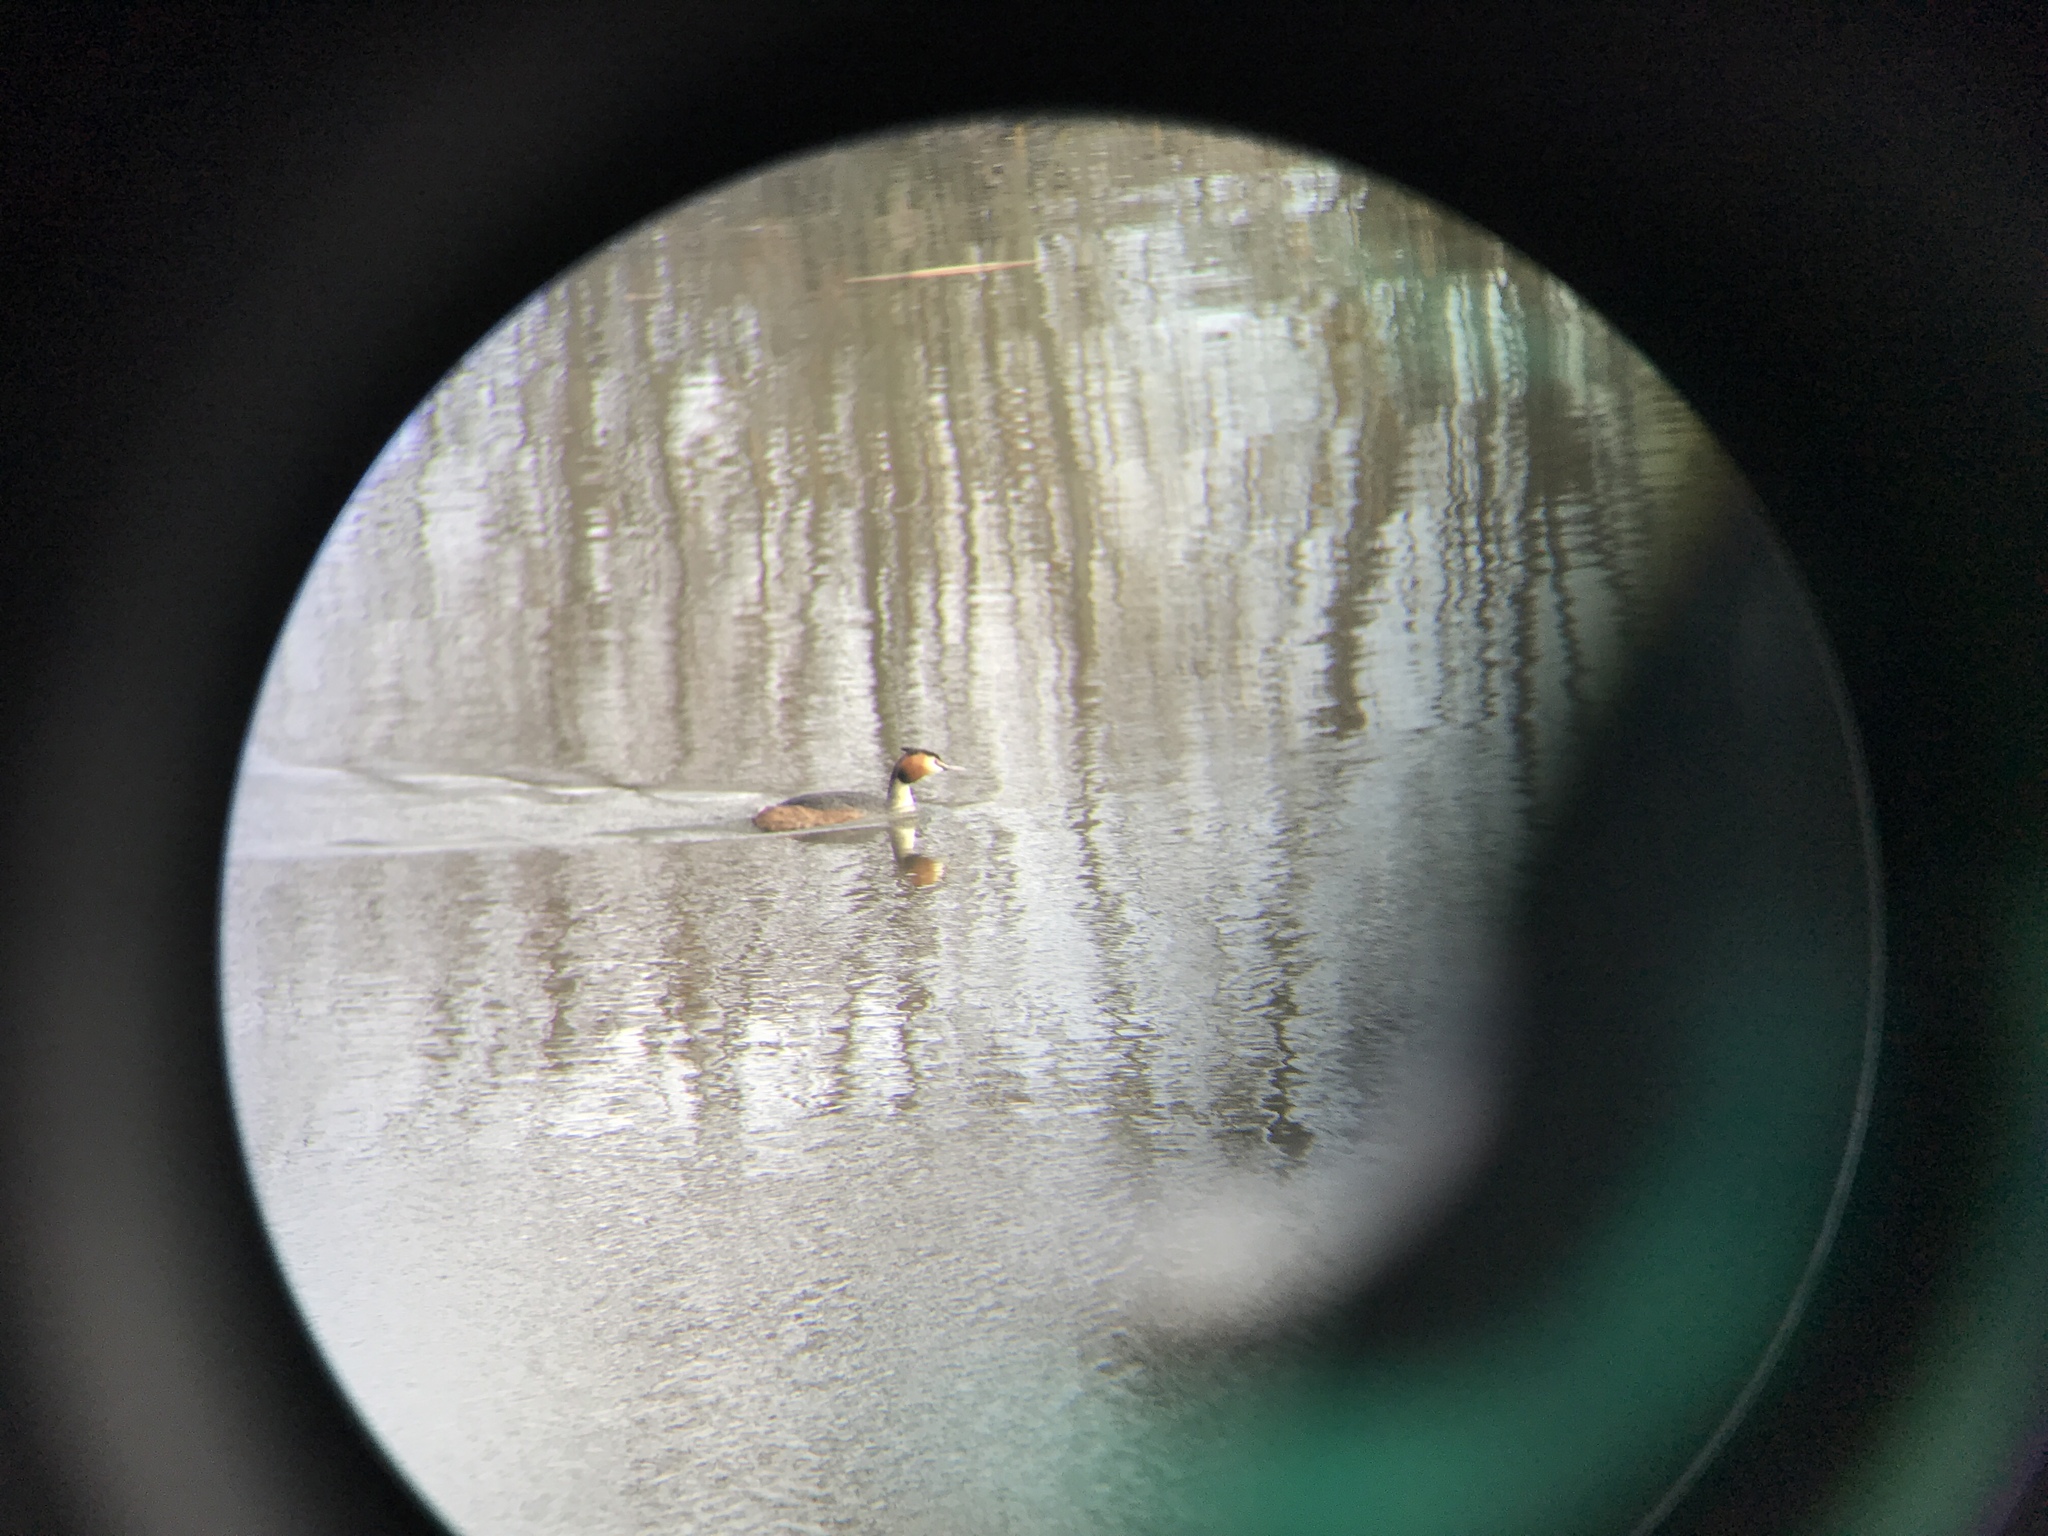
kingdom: Animalia
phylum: Chordata
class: Aves
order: Podicipediformes
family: Podicipedidae
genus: Podiceps
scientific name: Podiceps cristatus
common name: Great crested grebe
